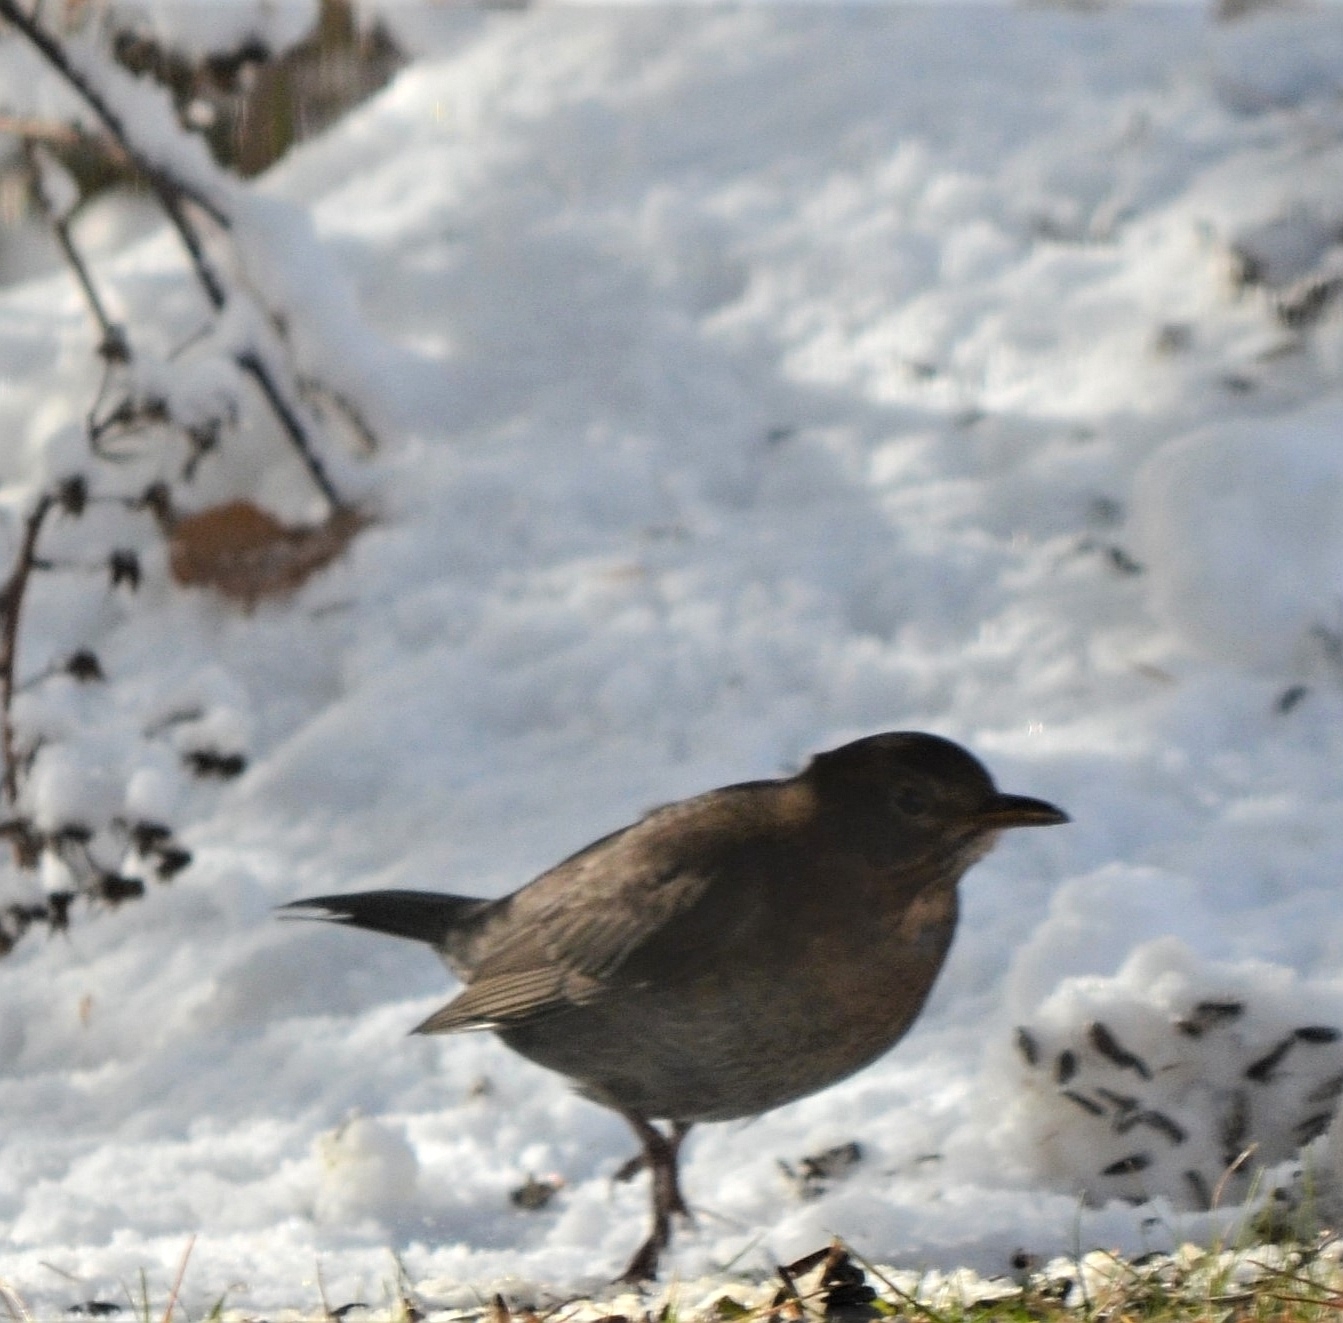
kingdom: Animalia
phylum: Chordata
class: Aves
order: Passeriformes
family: Turdidae
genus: Turdus
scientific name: Turdus merula
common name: Common blackbird
